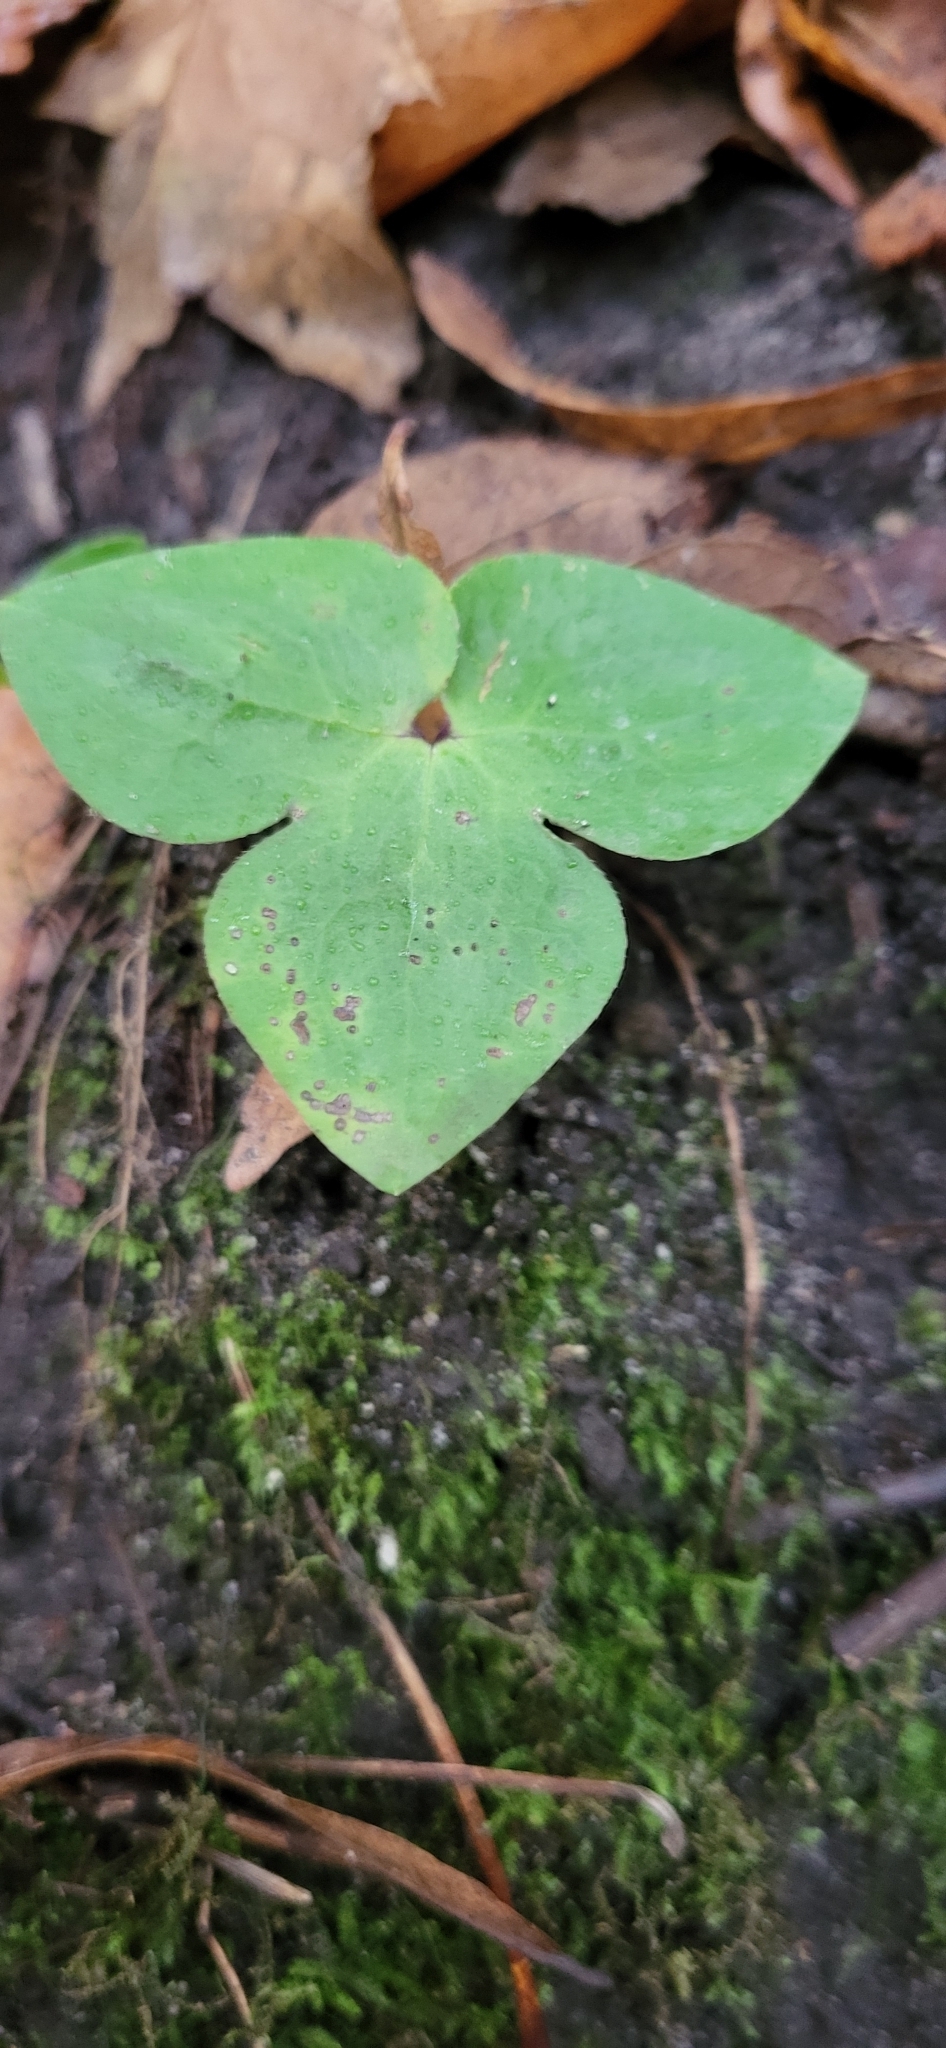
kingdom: Plantae
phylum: Tracheophyta
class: Magnoliopsida
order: Ranunculales
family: Ranunculaceae
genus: Hepatica
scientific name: Hepatica acutiloba
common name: Sharp-lobed hepatica
